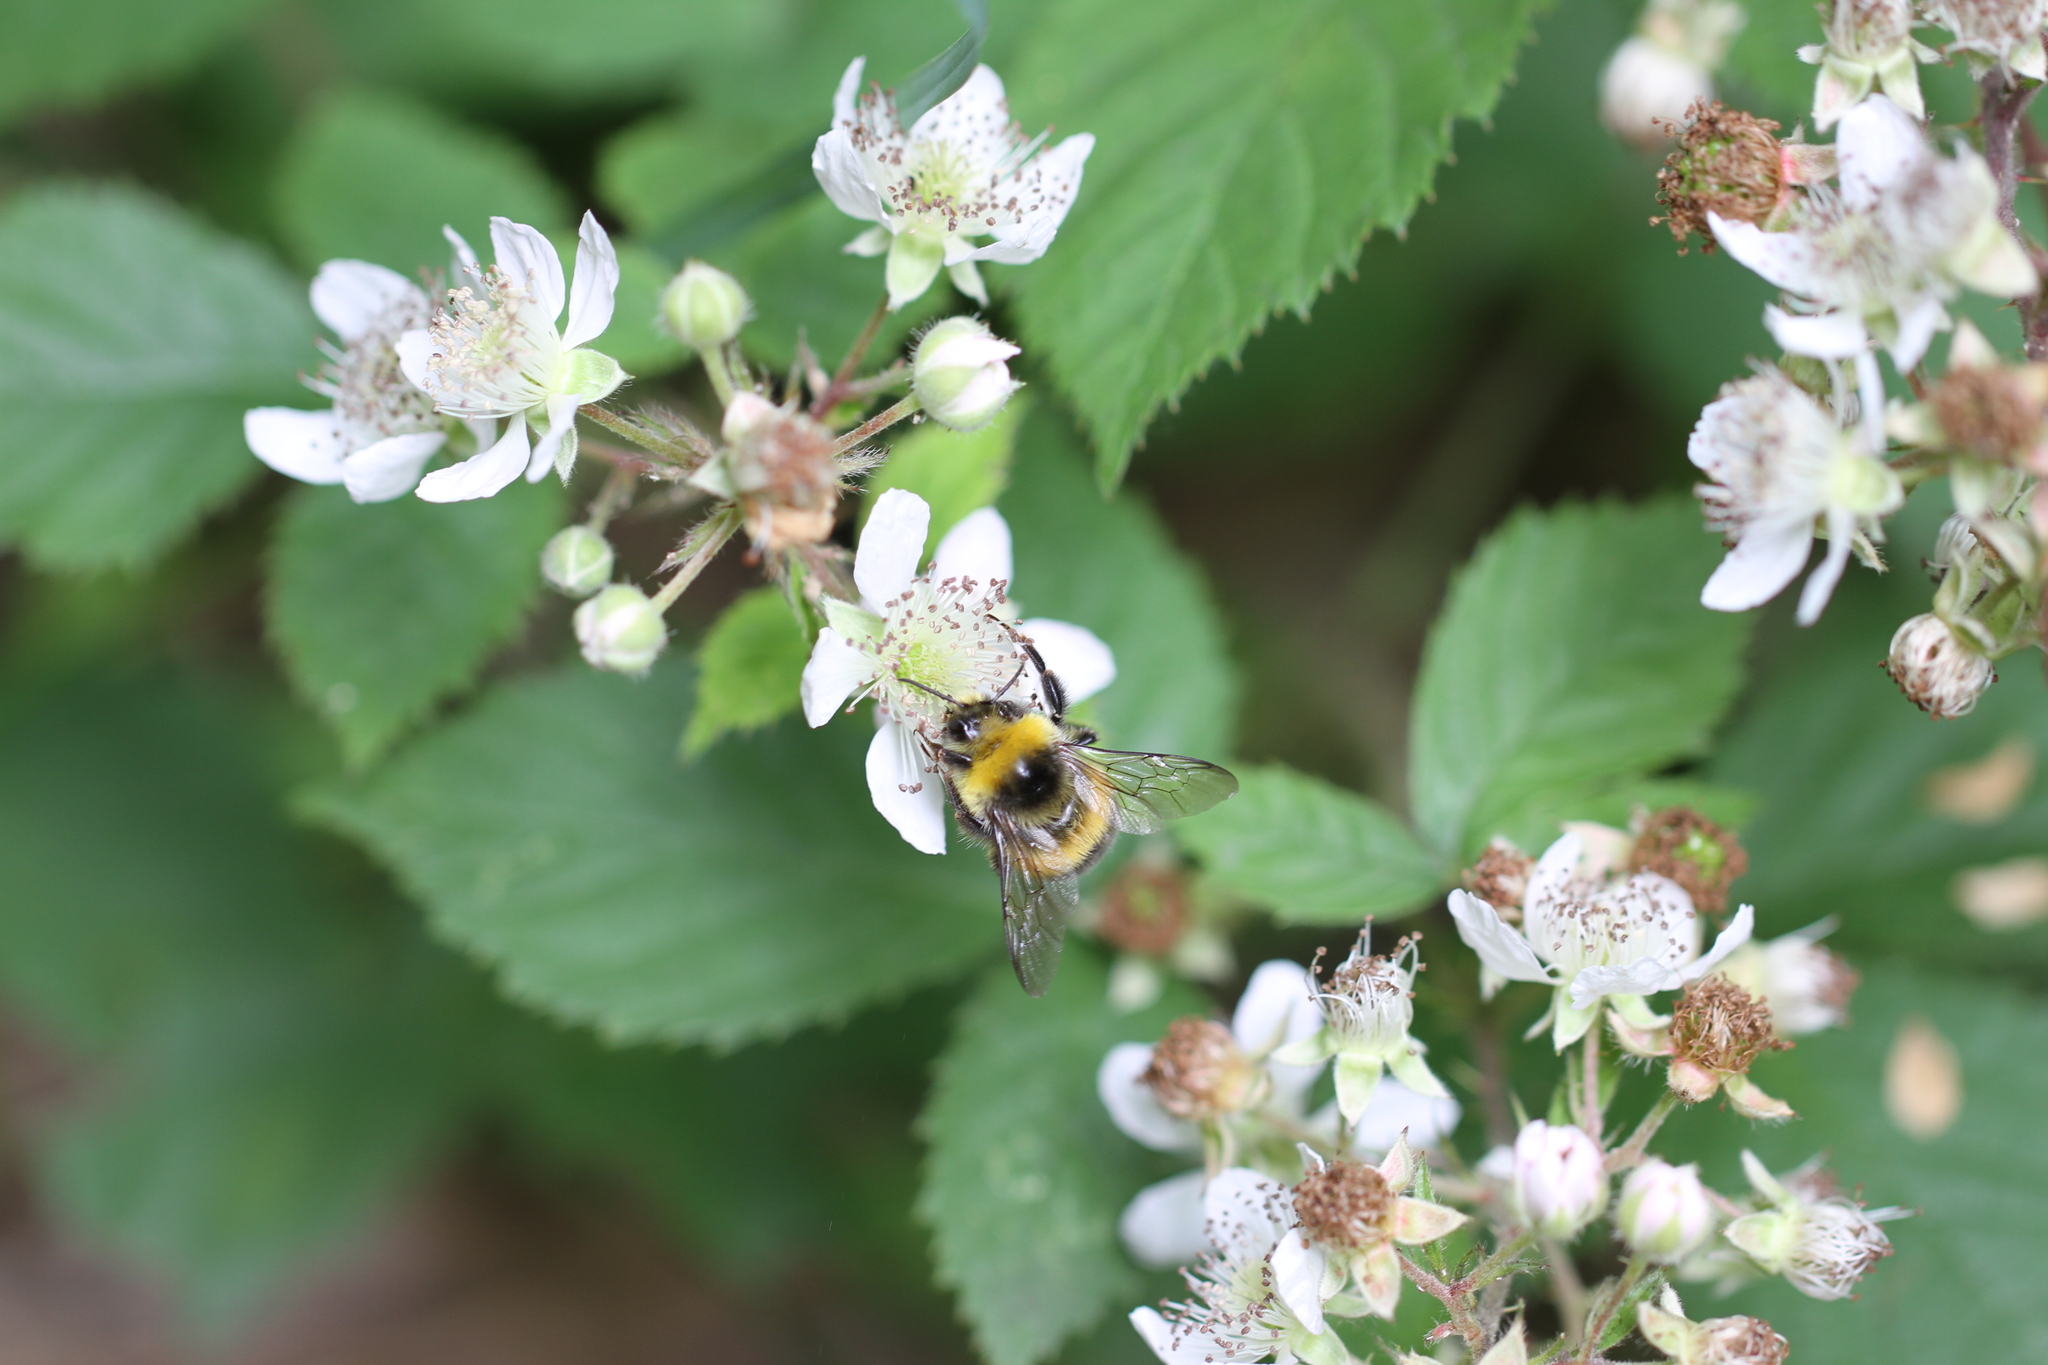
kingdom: Animalia
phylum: Arthropoda
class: Insecta
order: Hymenoptera
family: Apidae
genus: Bombus
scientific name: Bombus
